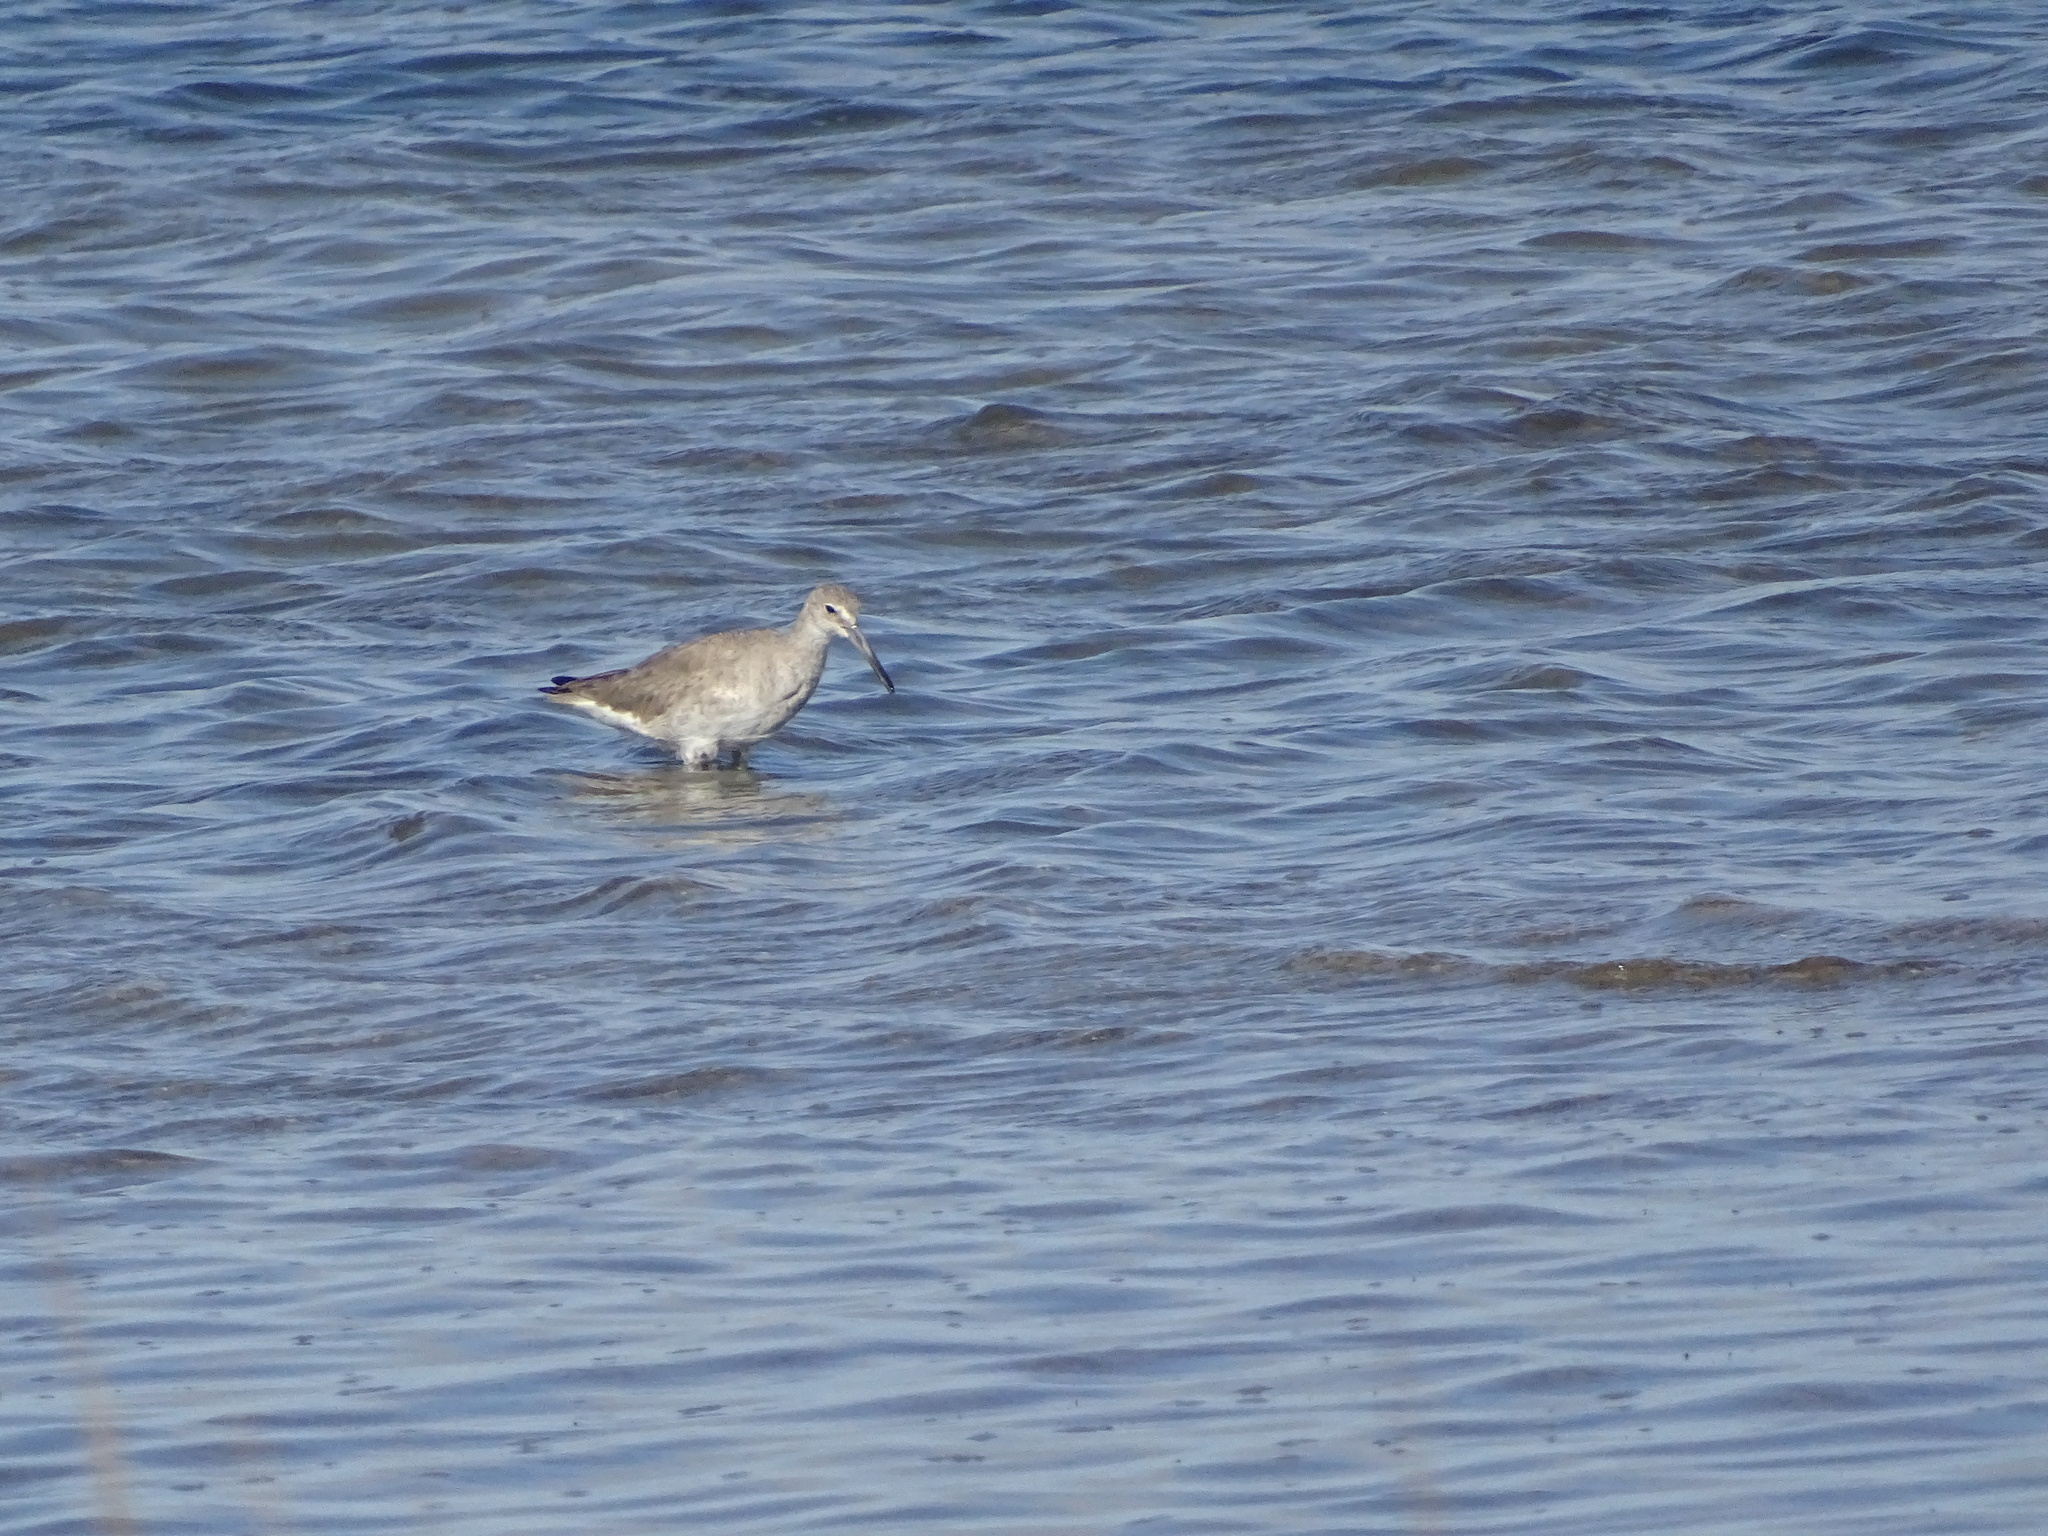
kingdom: Animalia
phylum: Chordata
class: Aves
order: Charadriiformes
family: Scolopacidae
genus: Tringa
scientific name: Tringa semipalmata
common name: Willet
